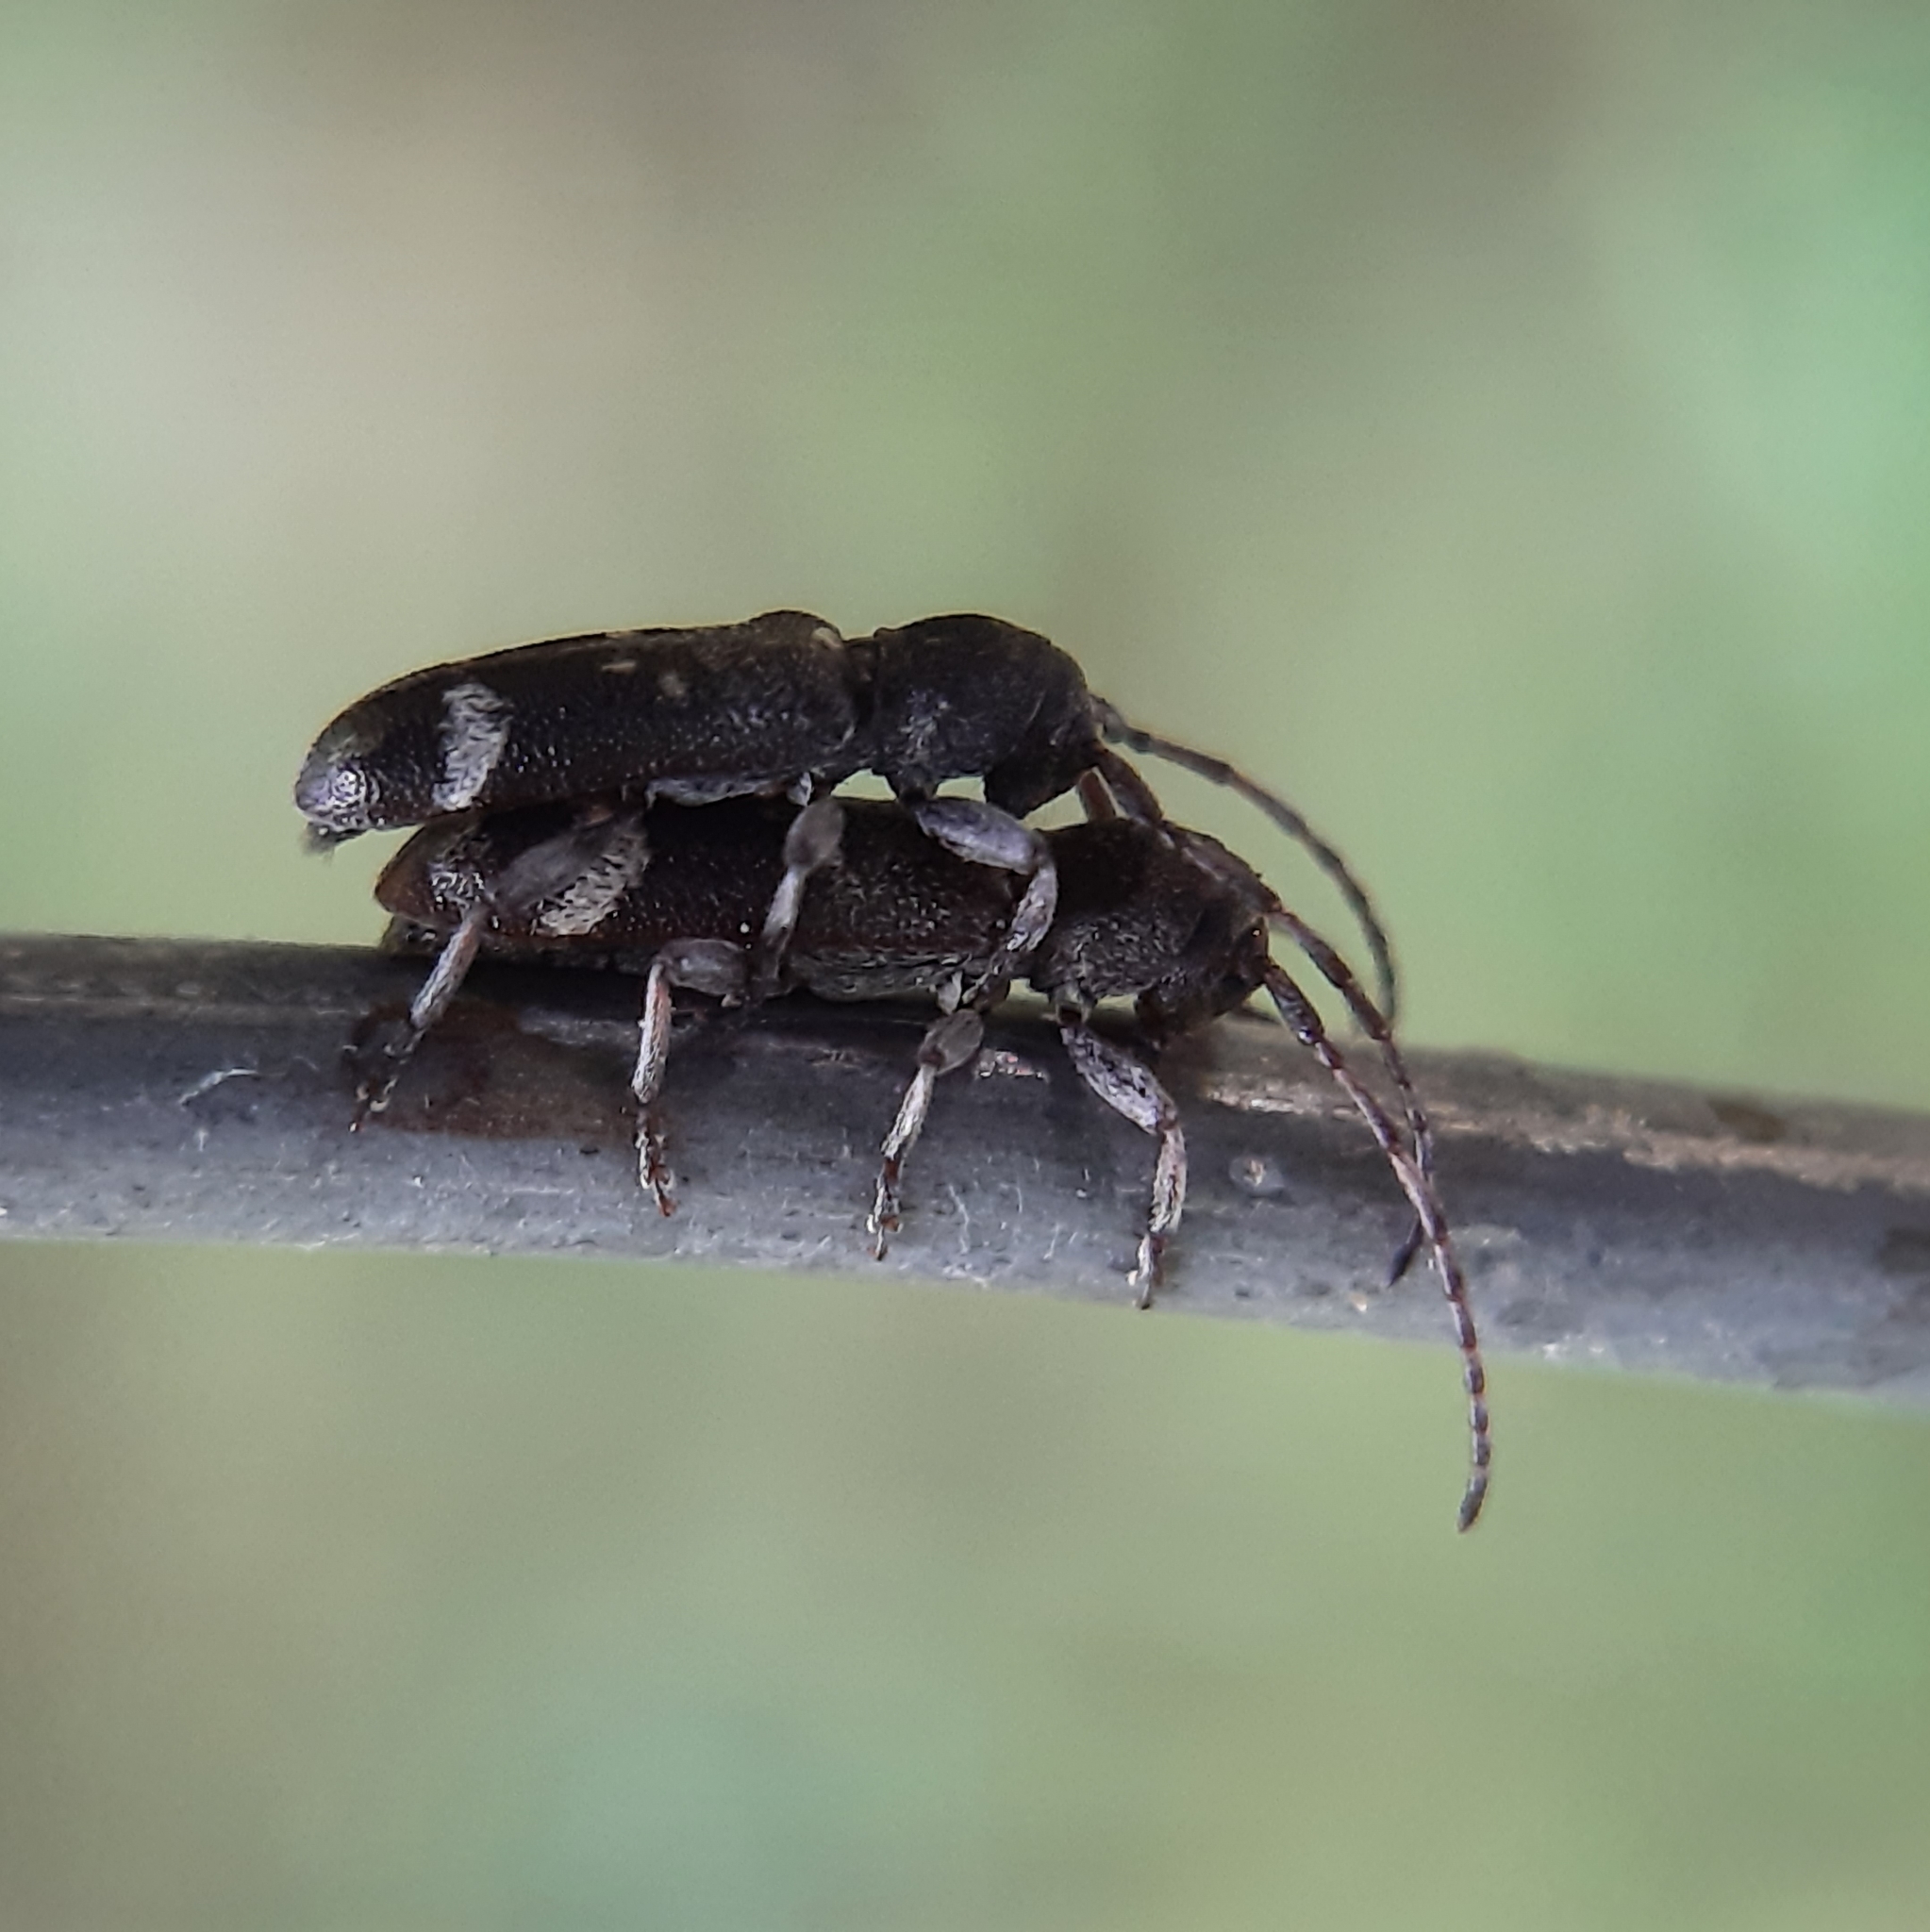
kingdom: Animalia
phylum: Arthropoda
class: Insecta
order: Coleoptera
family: Cerambycidae
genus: Psenocerus
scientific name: Psenocerus supernotatus
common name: Currant-tip borer
